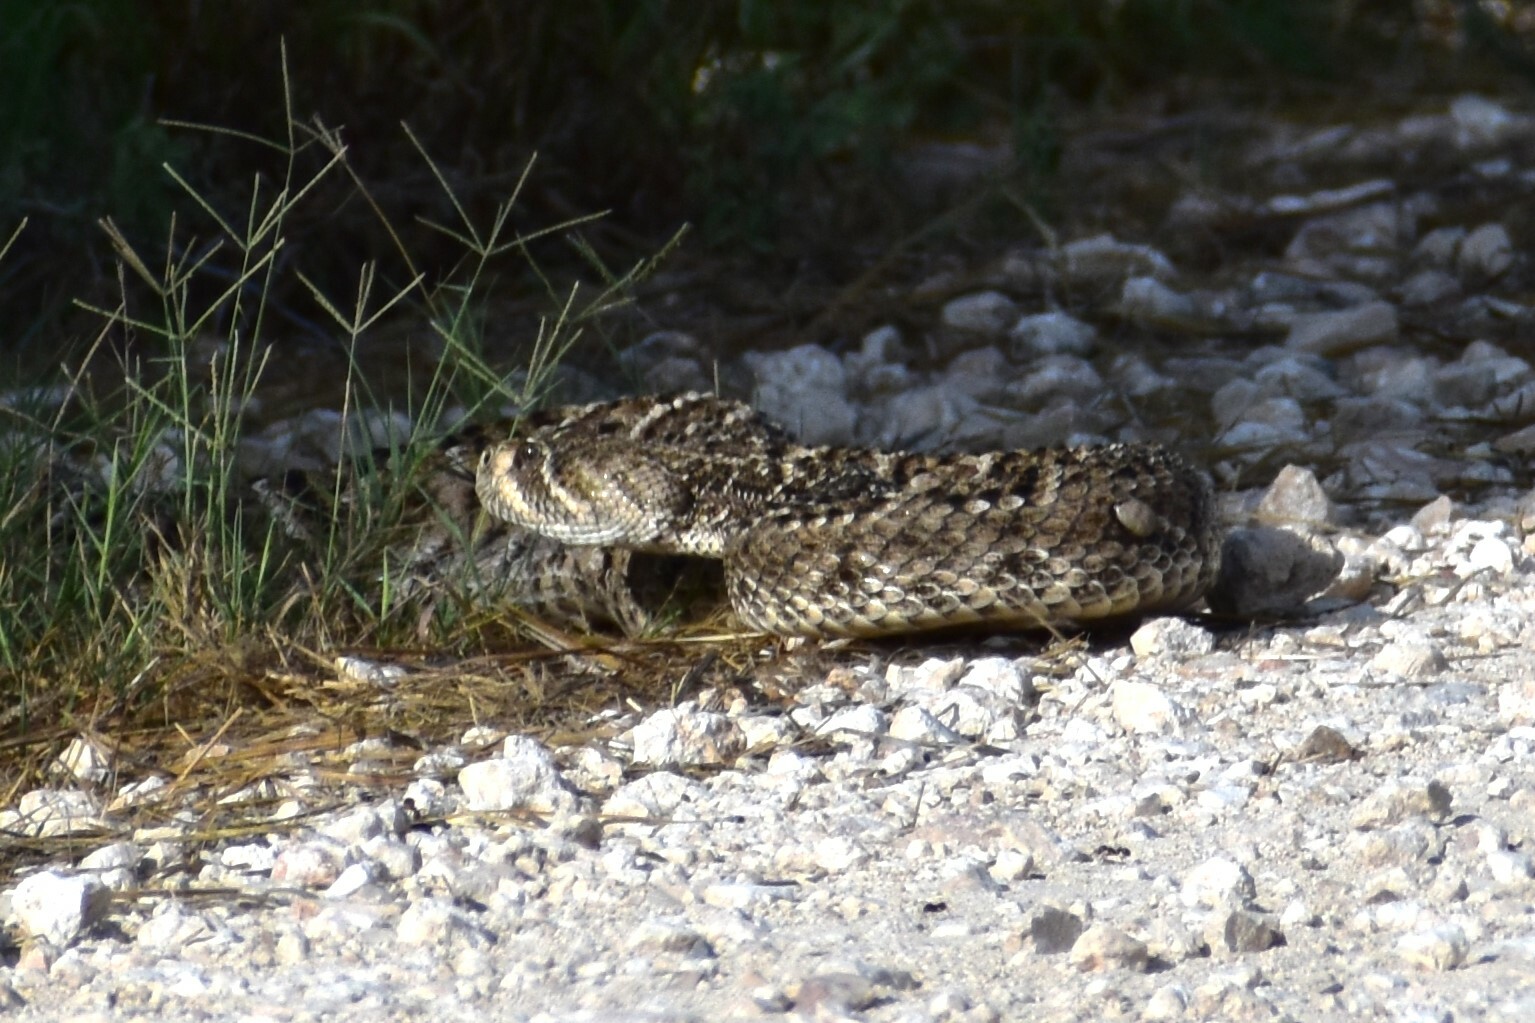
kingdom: Animalia
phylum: Chordata
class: Squamata
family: Viperidae
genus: Crotalus
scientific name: Crotalus atrox
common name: Western diamond-backed rattlesnake
